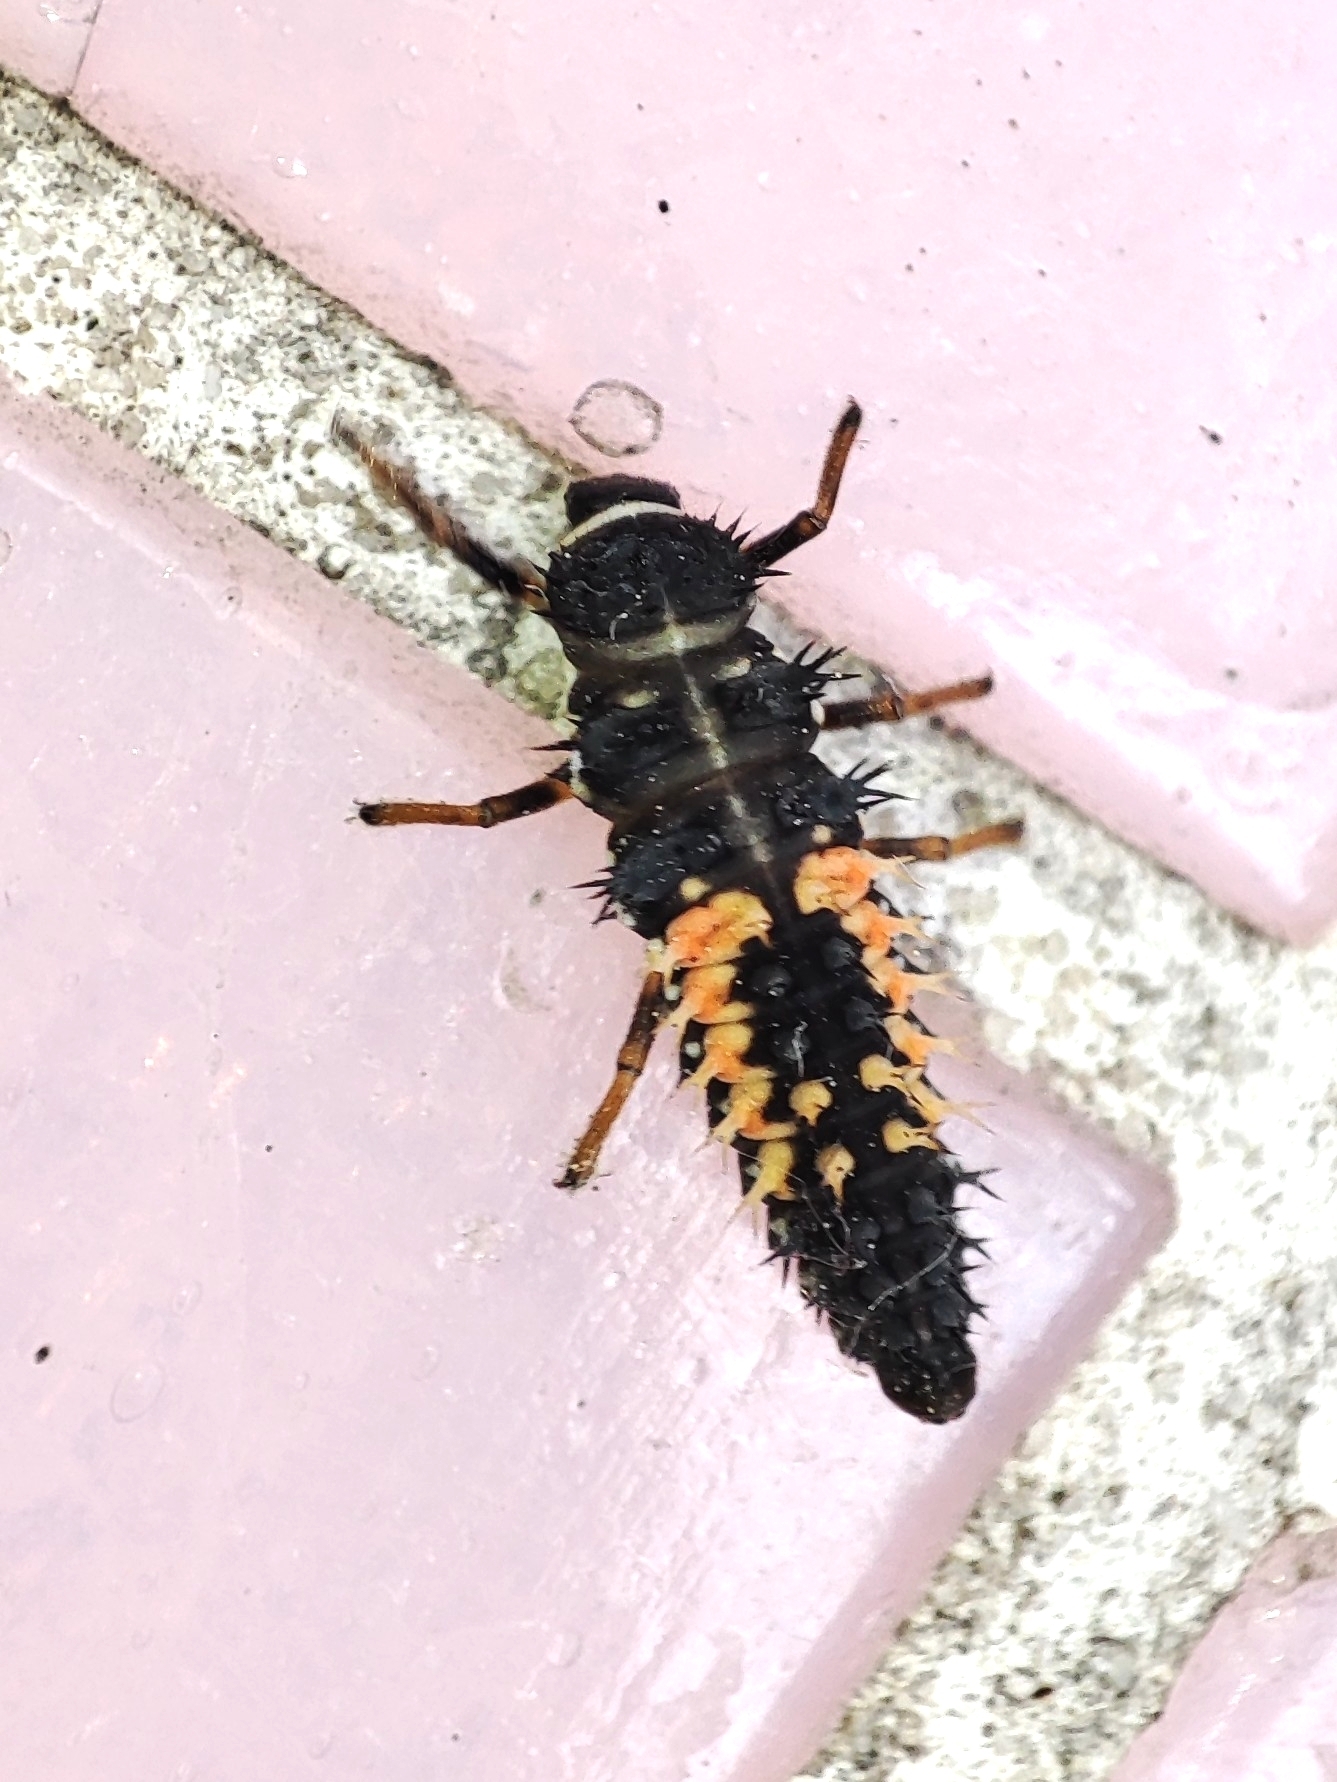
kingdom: Animalia
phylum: Arthropoda
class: Insecta
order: Coleoptera
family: Coccinellidae
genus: Harmonia
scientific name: Harmonia axyridis
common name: Harlequin ladybird
